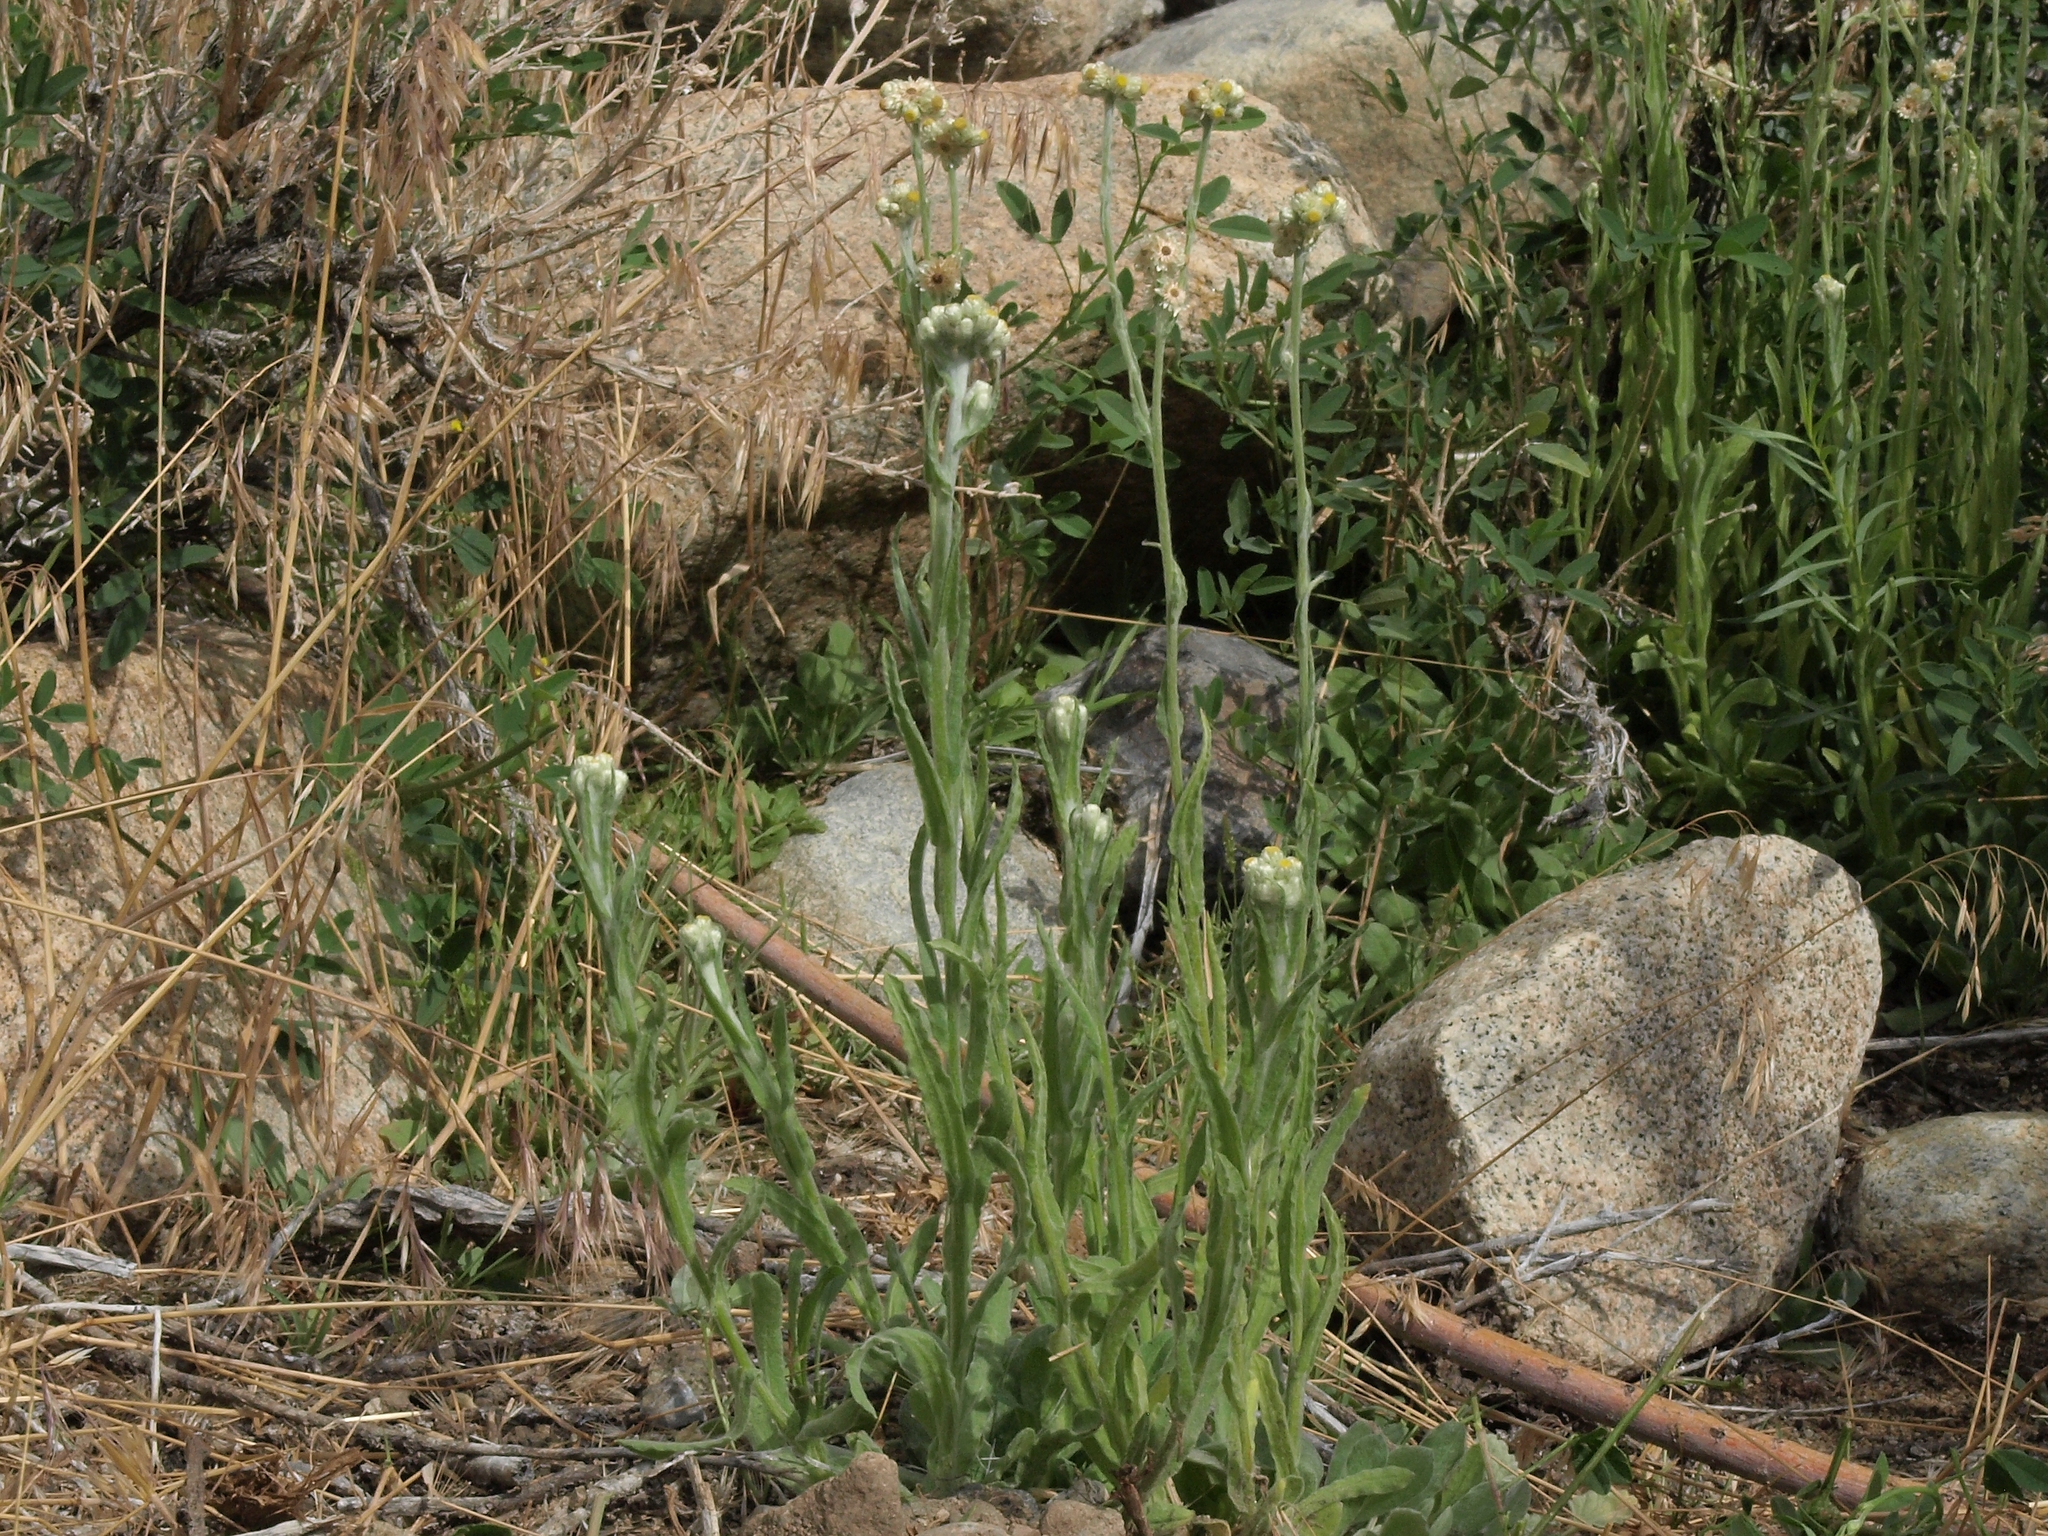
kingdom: Plantae
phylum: Tracheophyta
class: Magnoliopsida
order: Asterales
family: Asteraceae
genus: Pseudognaphalium
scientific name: Pseudognaphalium stramineum
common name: Cotton-batting-plant
